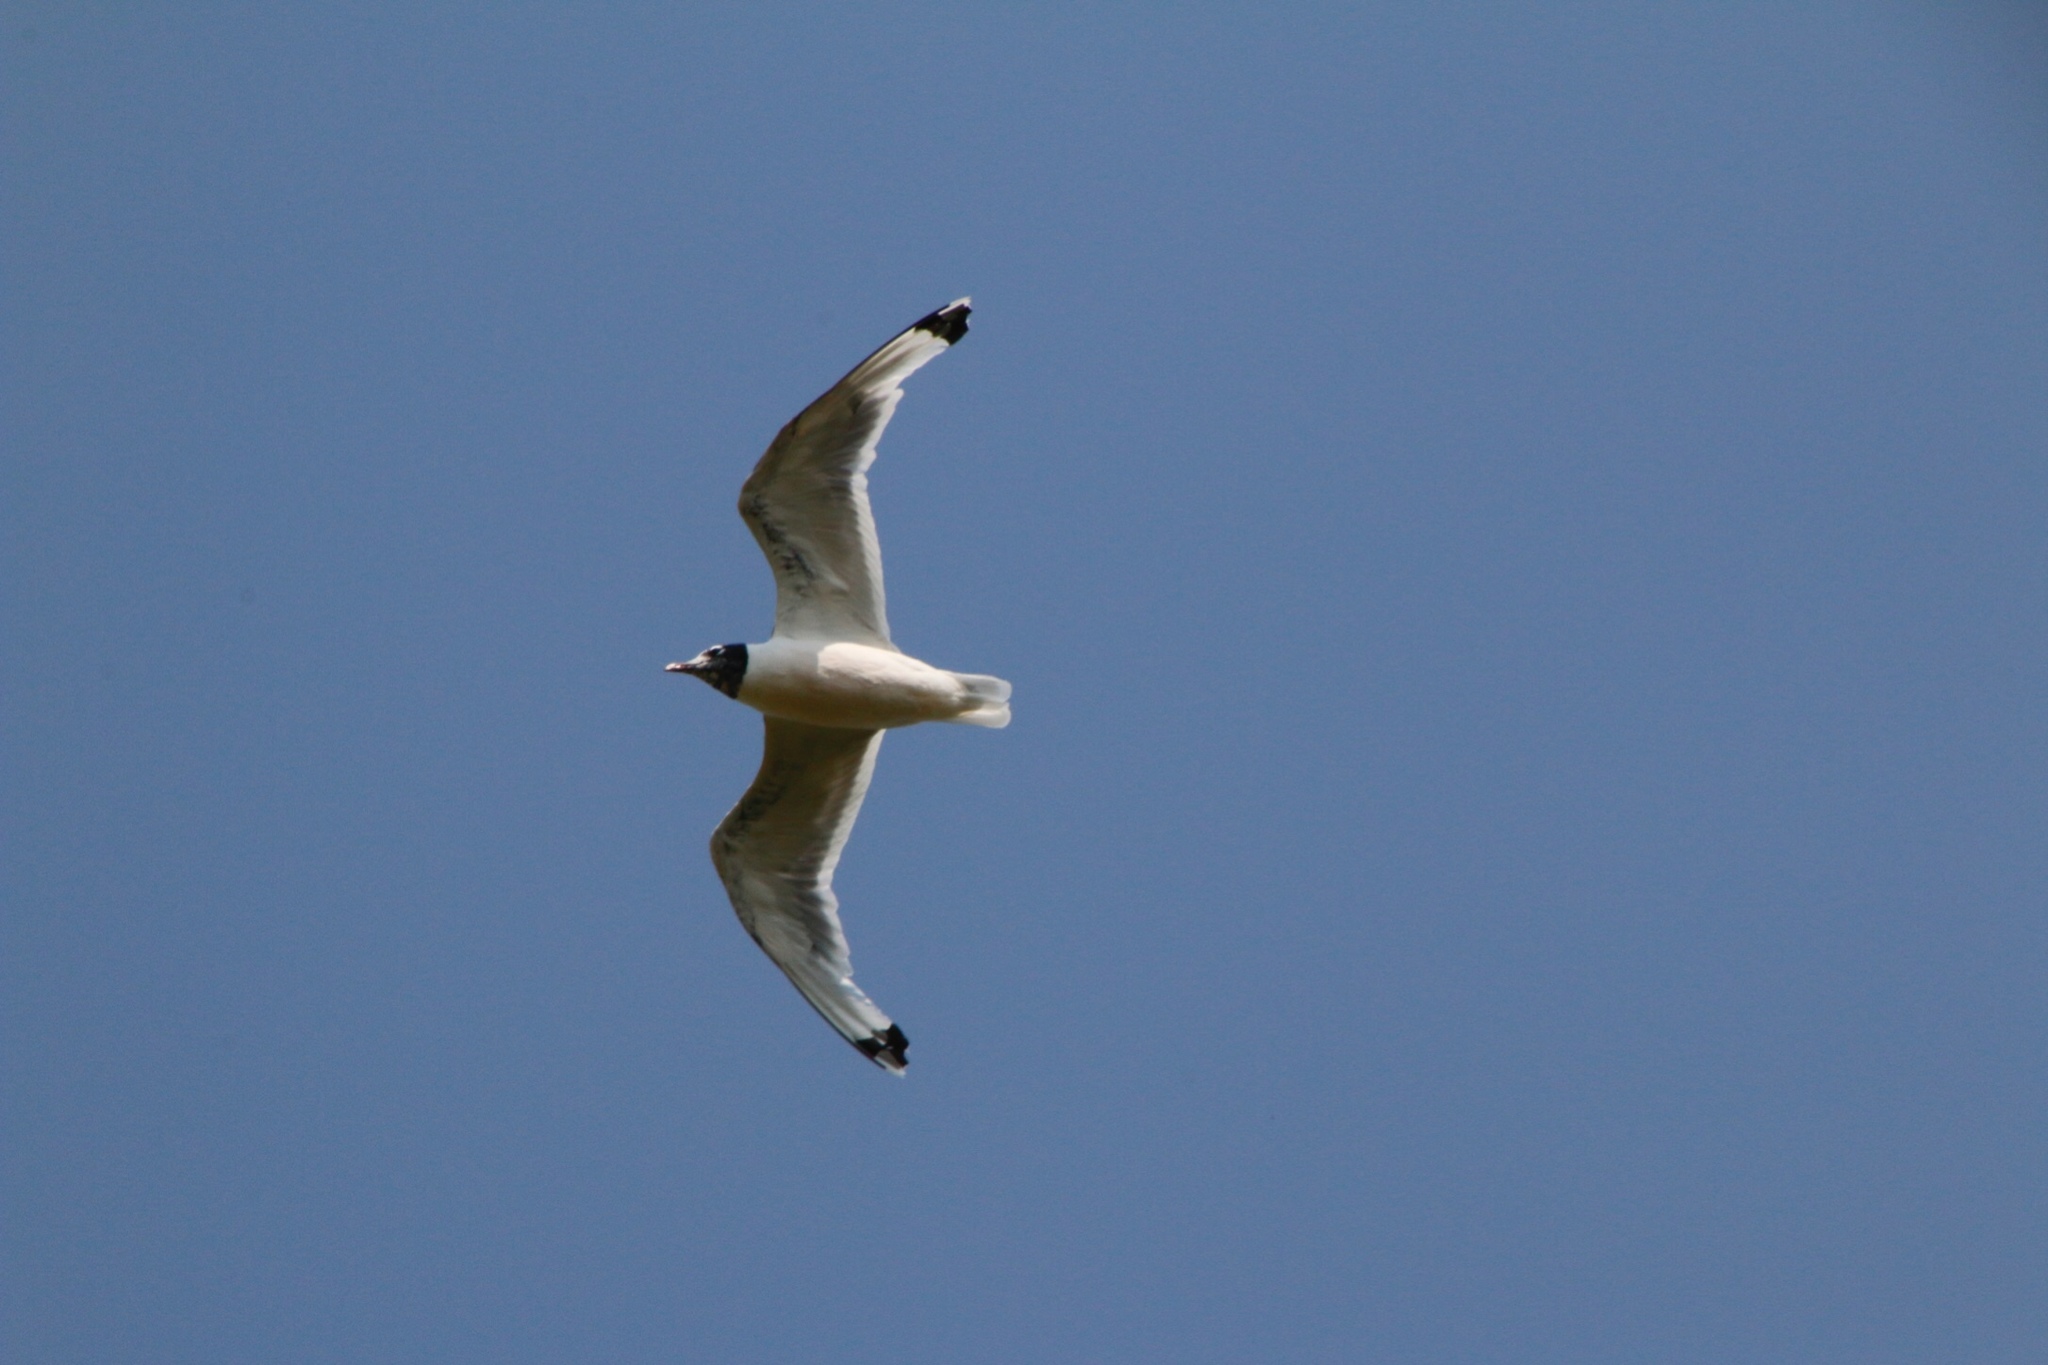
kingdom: Animalia
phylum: Chordata
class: Aves
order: Charadriiformes
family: Laridae
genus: Leucophaeus
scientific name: Leucophaeus pipixcan
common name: Franklin's gull
